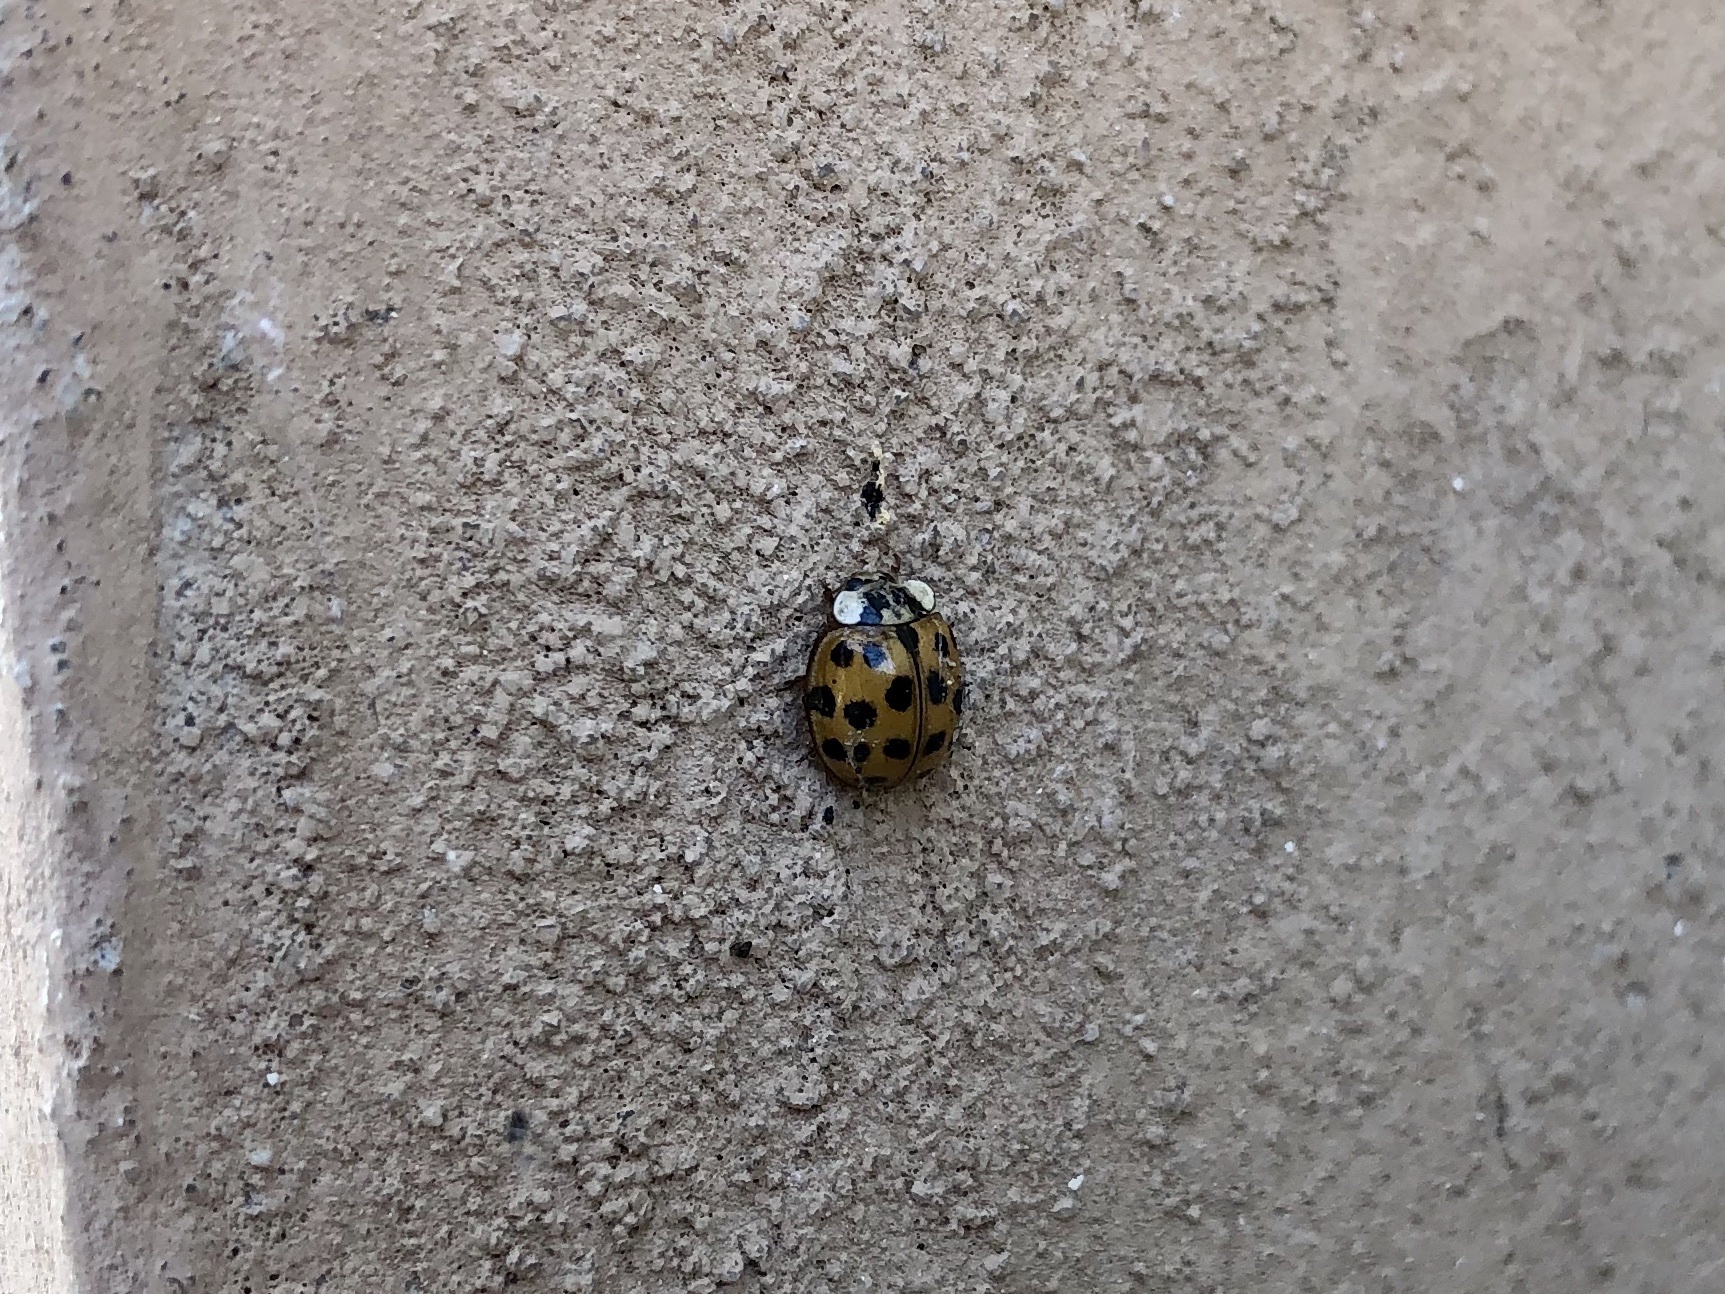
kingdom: Animalia
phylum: Arthropoda
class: Insecta
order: Coleoptera
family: Coccinellidae
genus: Harmonia
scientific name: Harmonia axyridis
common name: Harlequin ladybird
